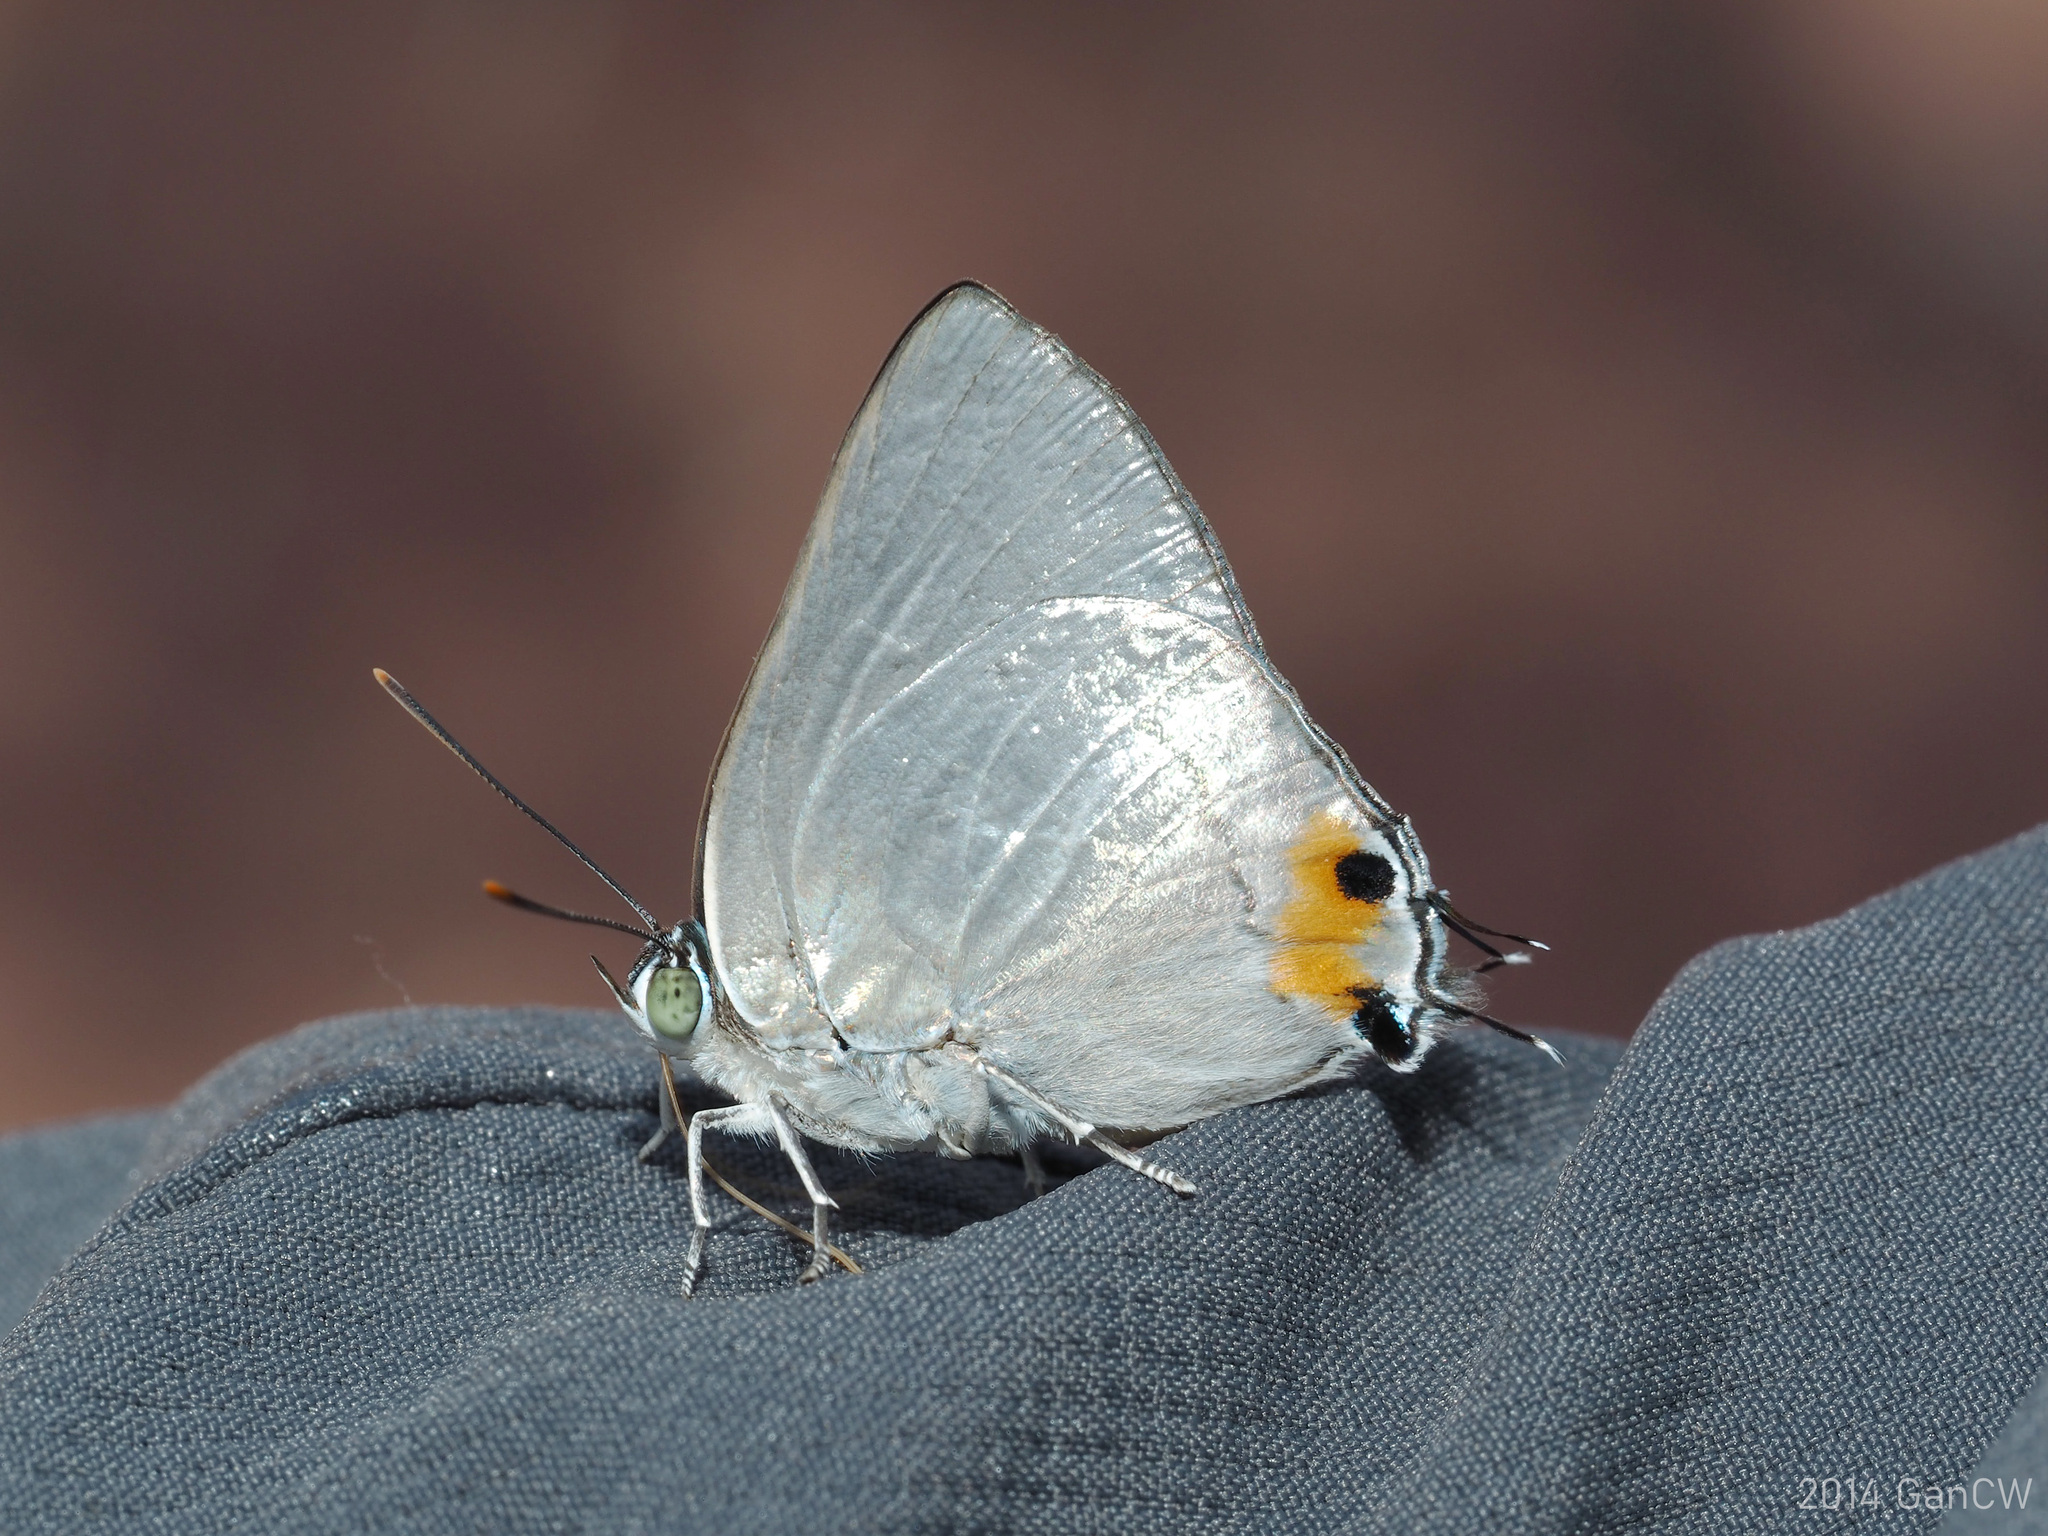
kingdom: Animalia
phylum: Arthropoda
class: Insecta
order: Lepidoptera
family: Lycaenidae
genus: Ancema
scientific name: Ancema blanka
